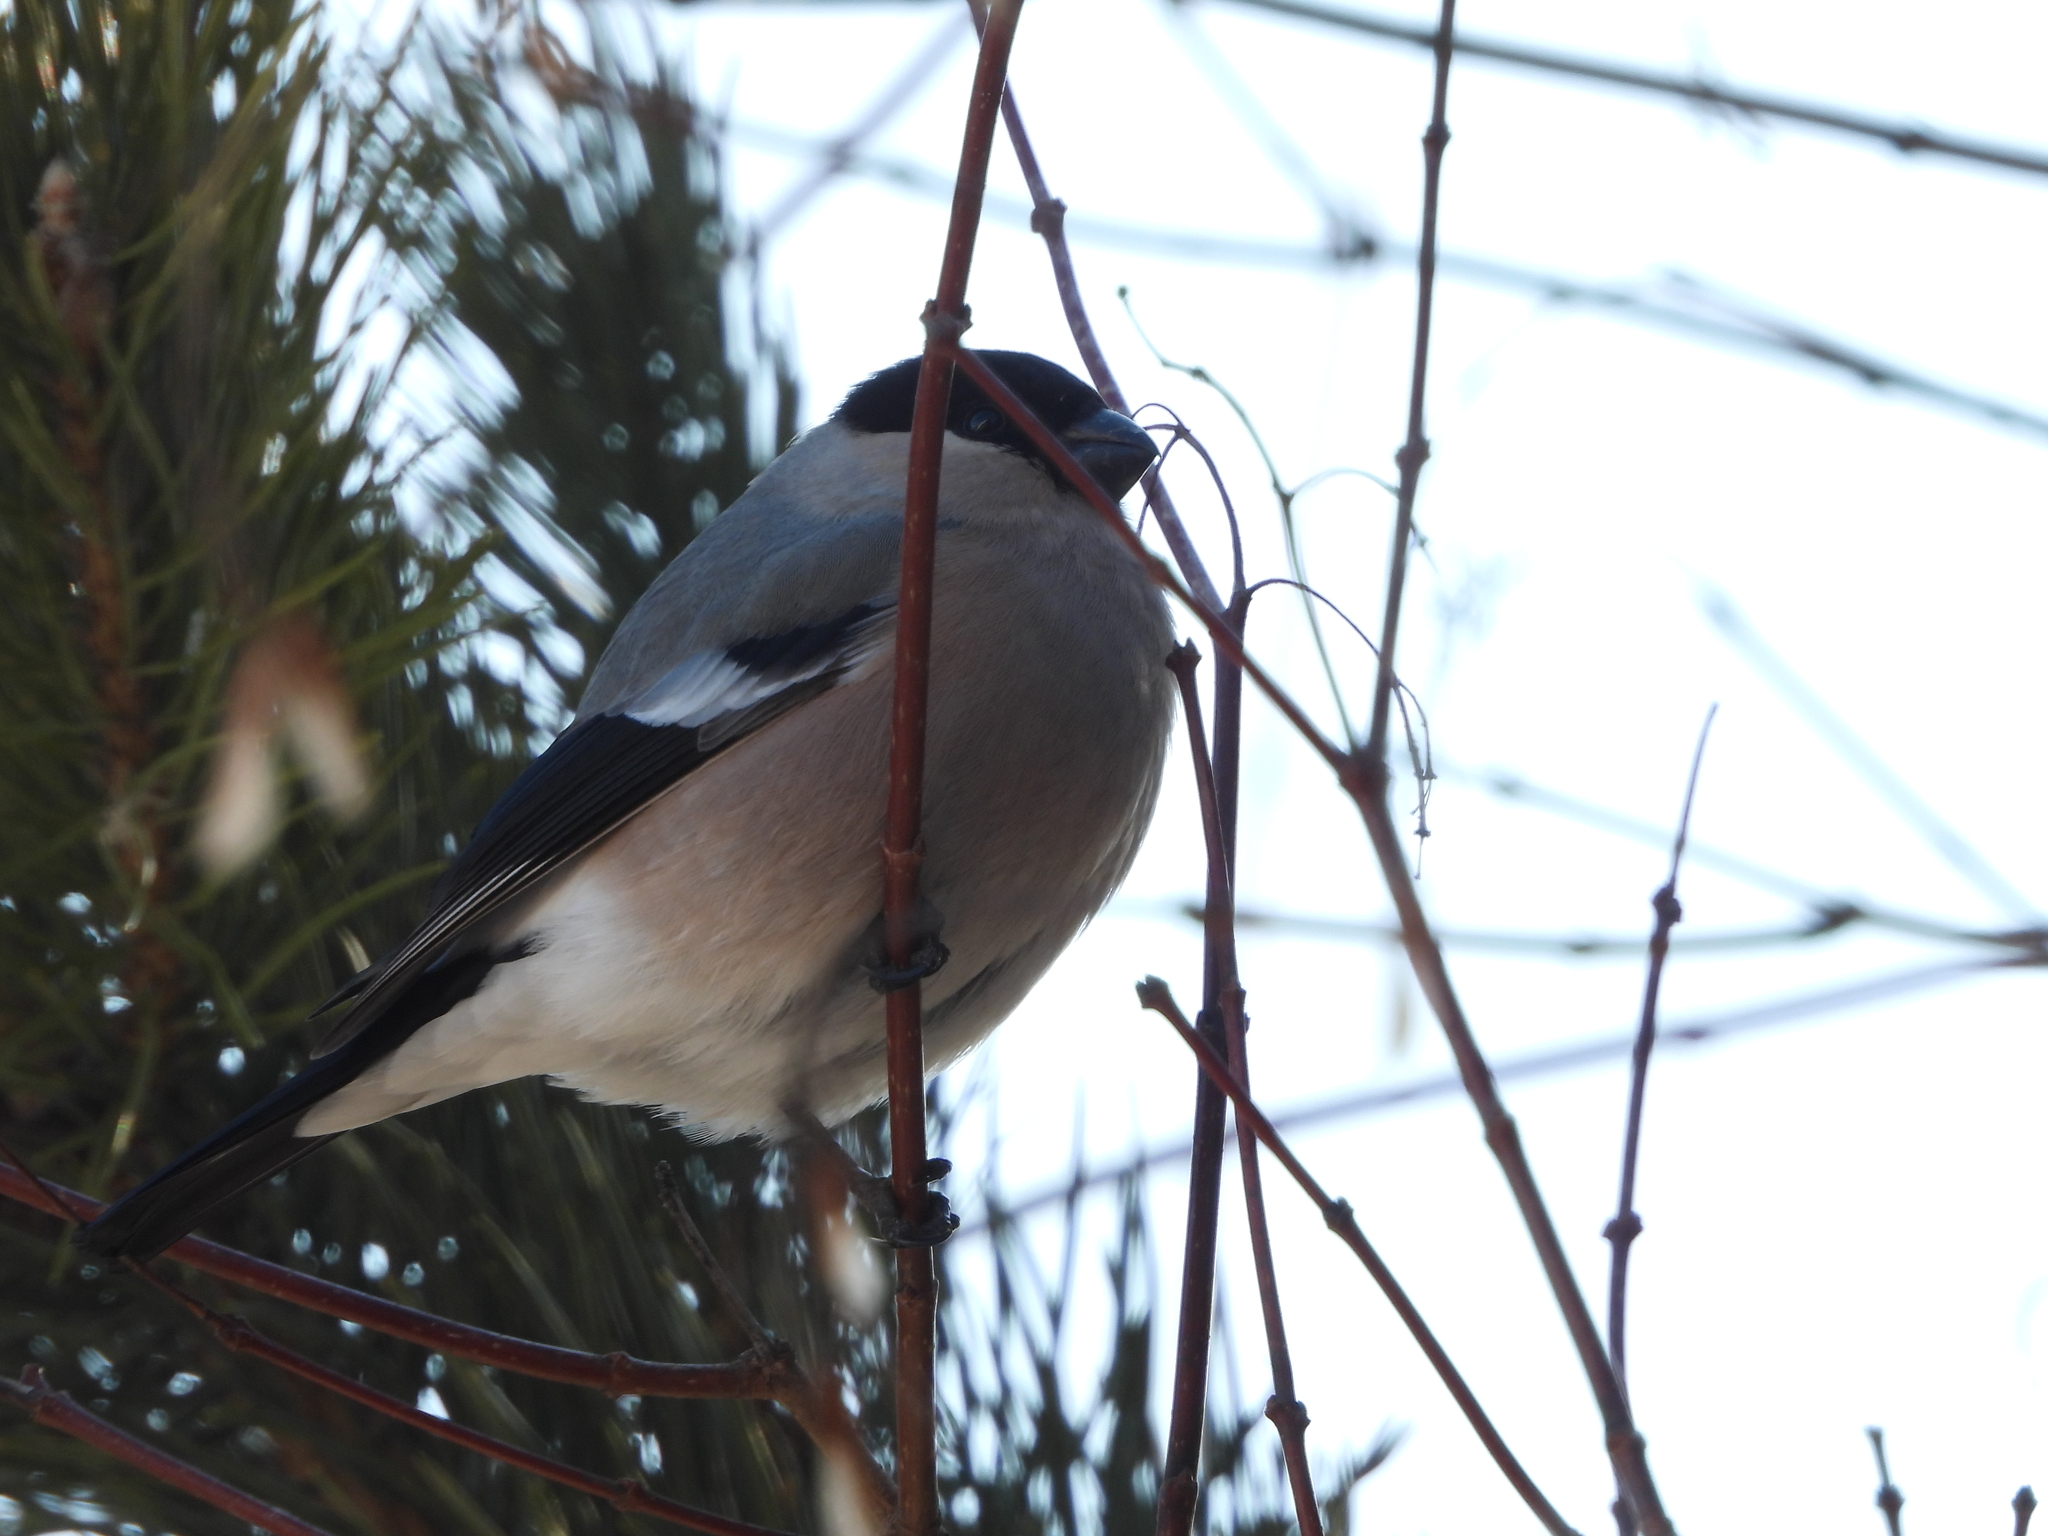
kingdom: Animalia
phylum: Chordata
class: Aves
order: Passeriformes
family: Fringillidae
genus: Pyrrhula
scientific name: Pyrrhula pyrrhula
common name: Eurasian bullfinch
